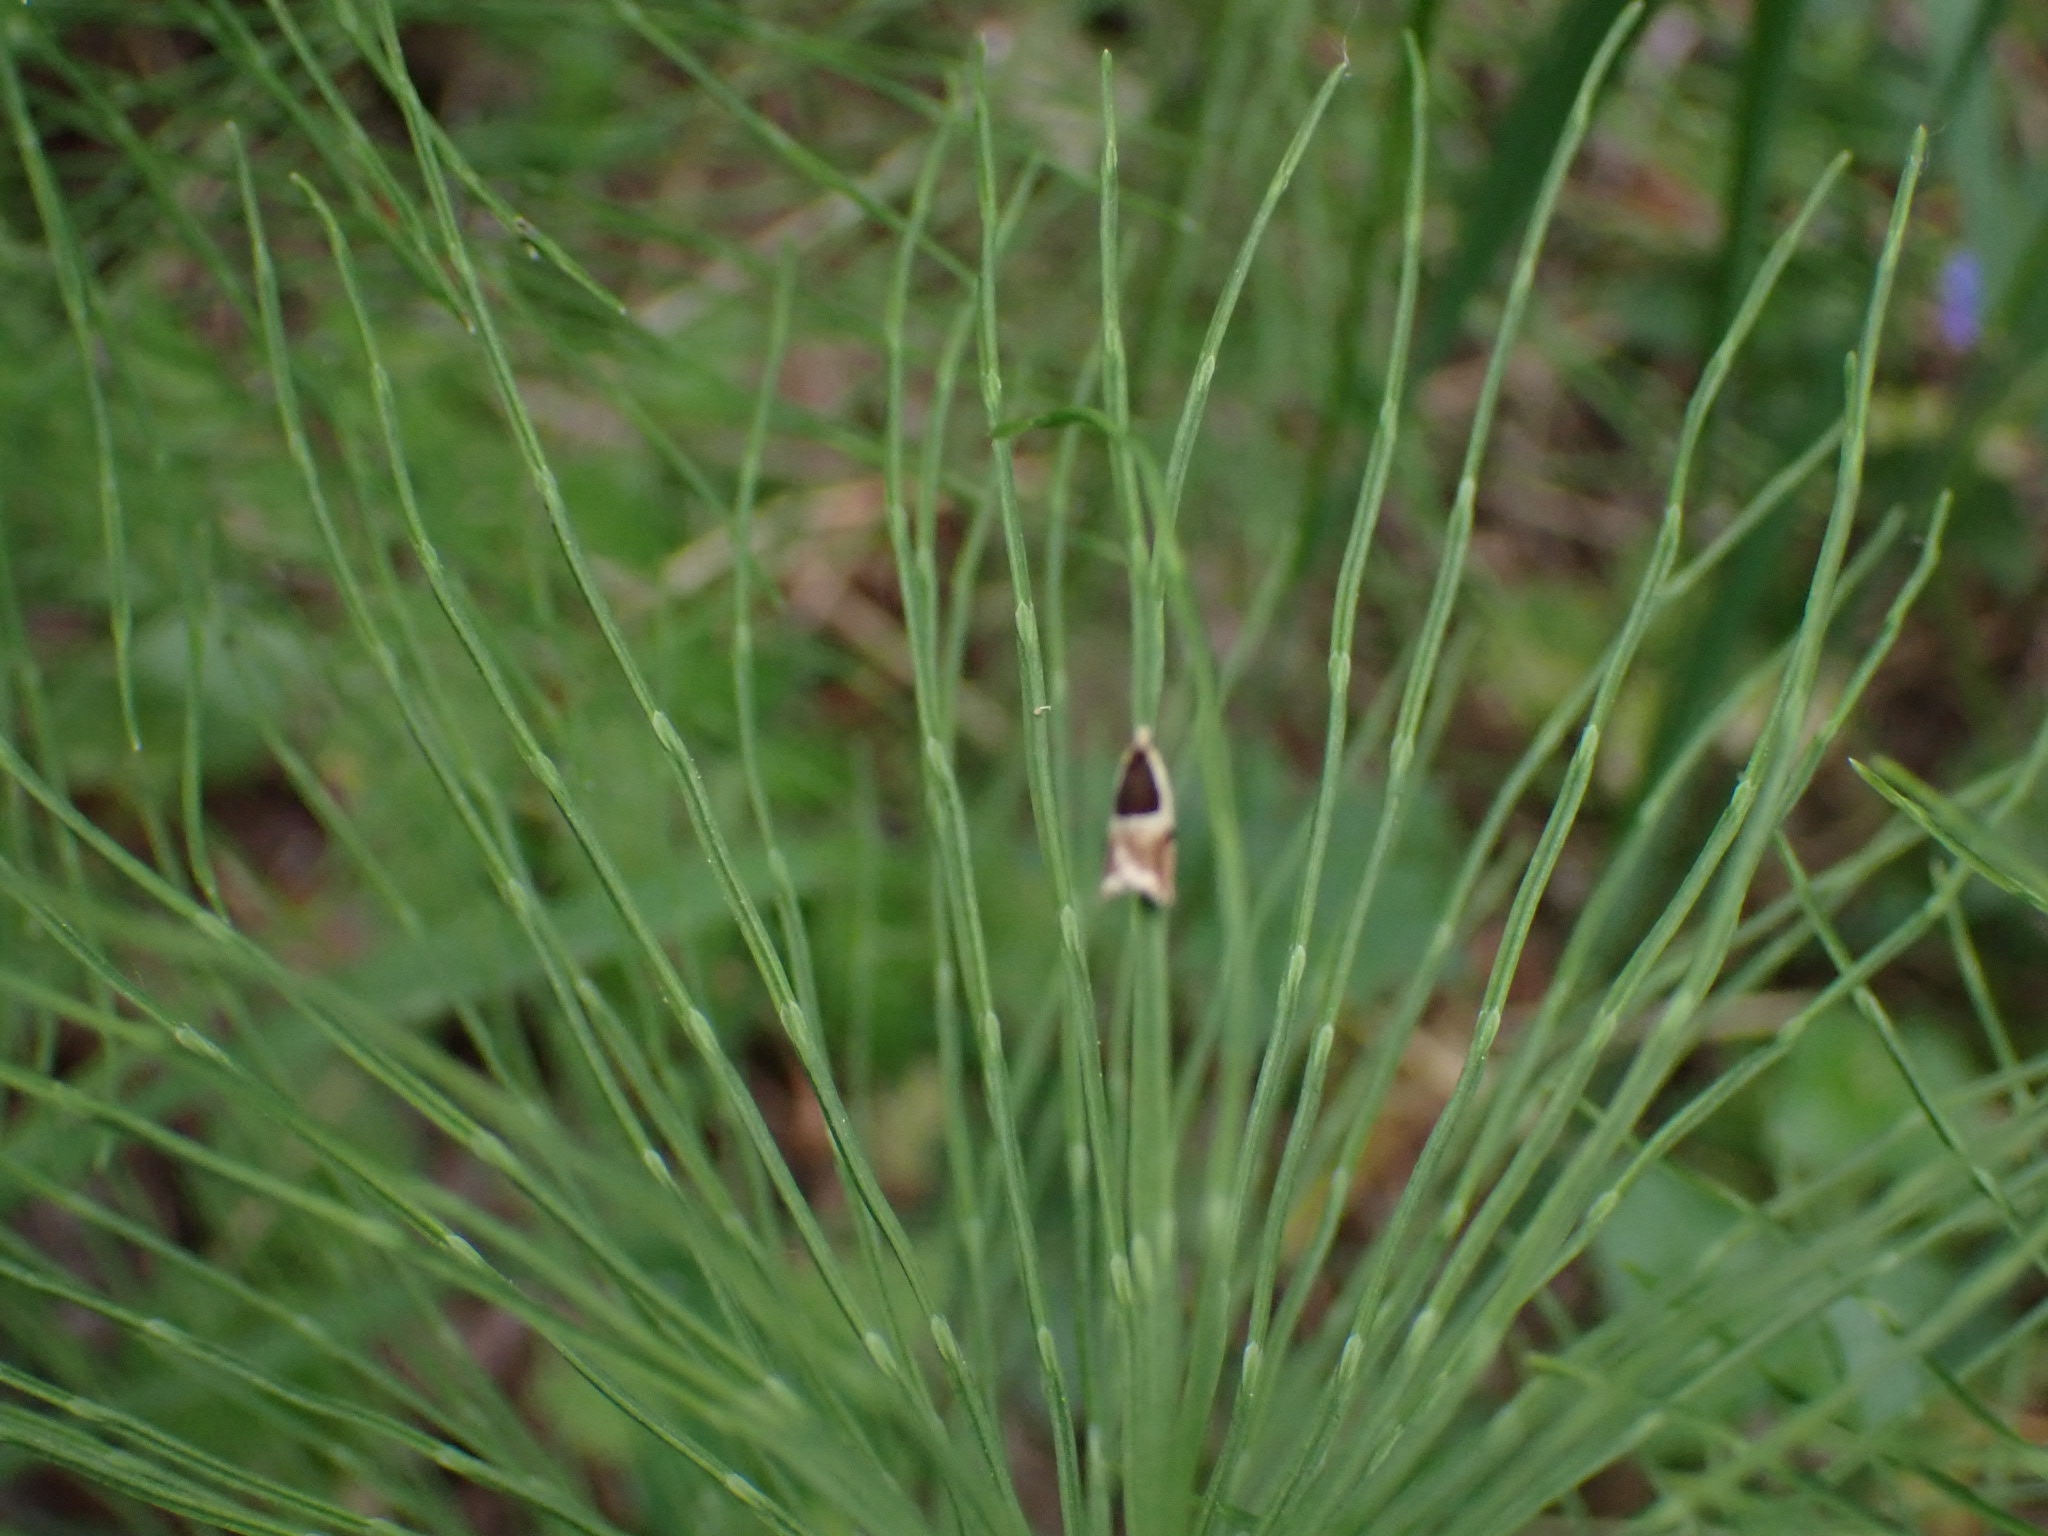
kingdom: Animalia
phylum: Arthropoda
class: Insecta
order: Lepidoptera
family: Tortricidae
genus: Ancylis
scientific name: Ancylis badiana
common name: Common roller
